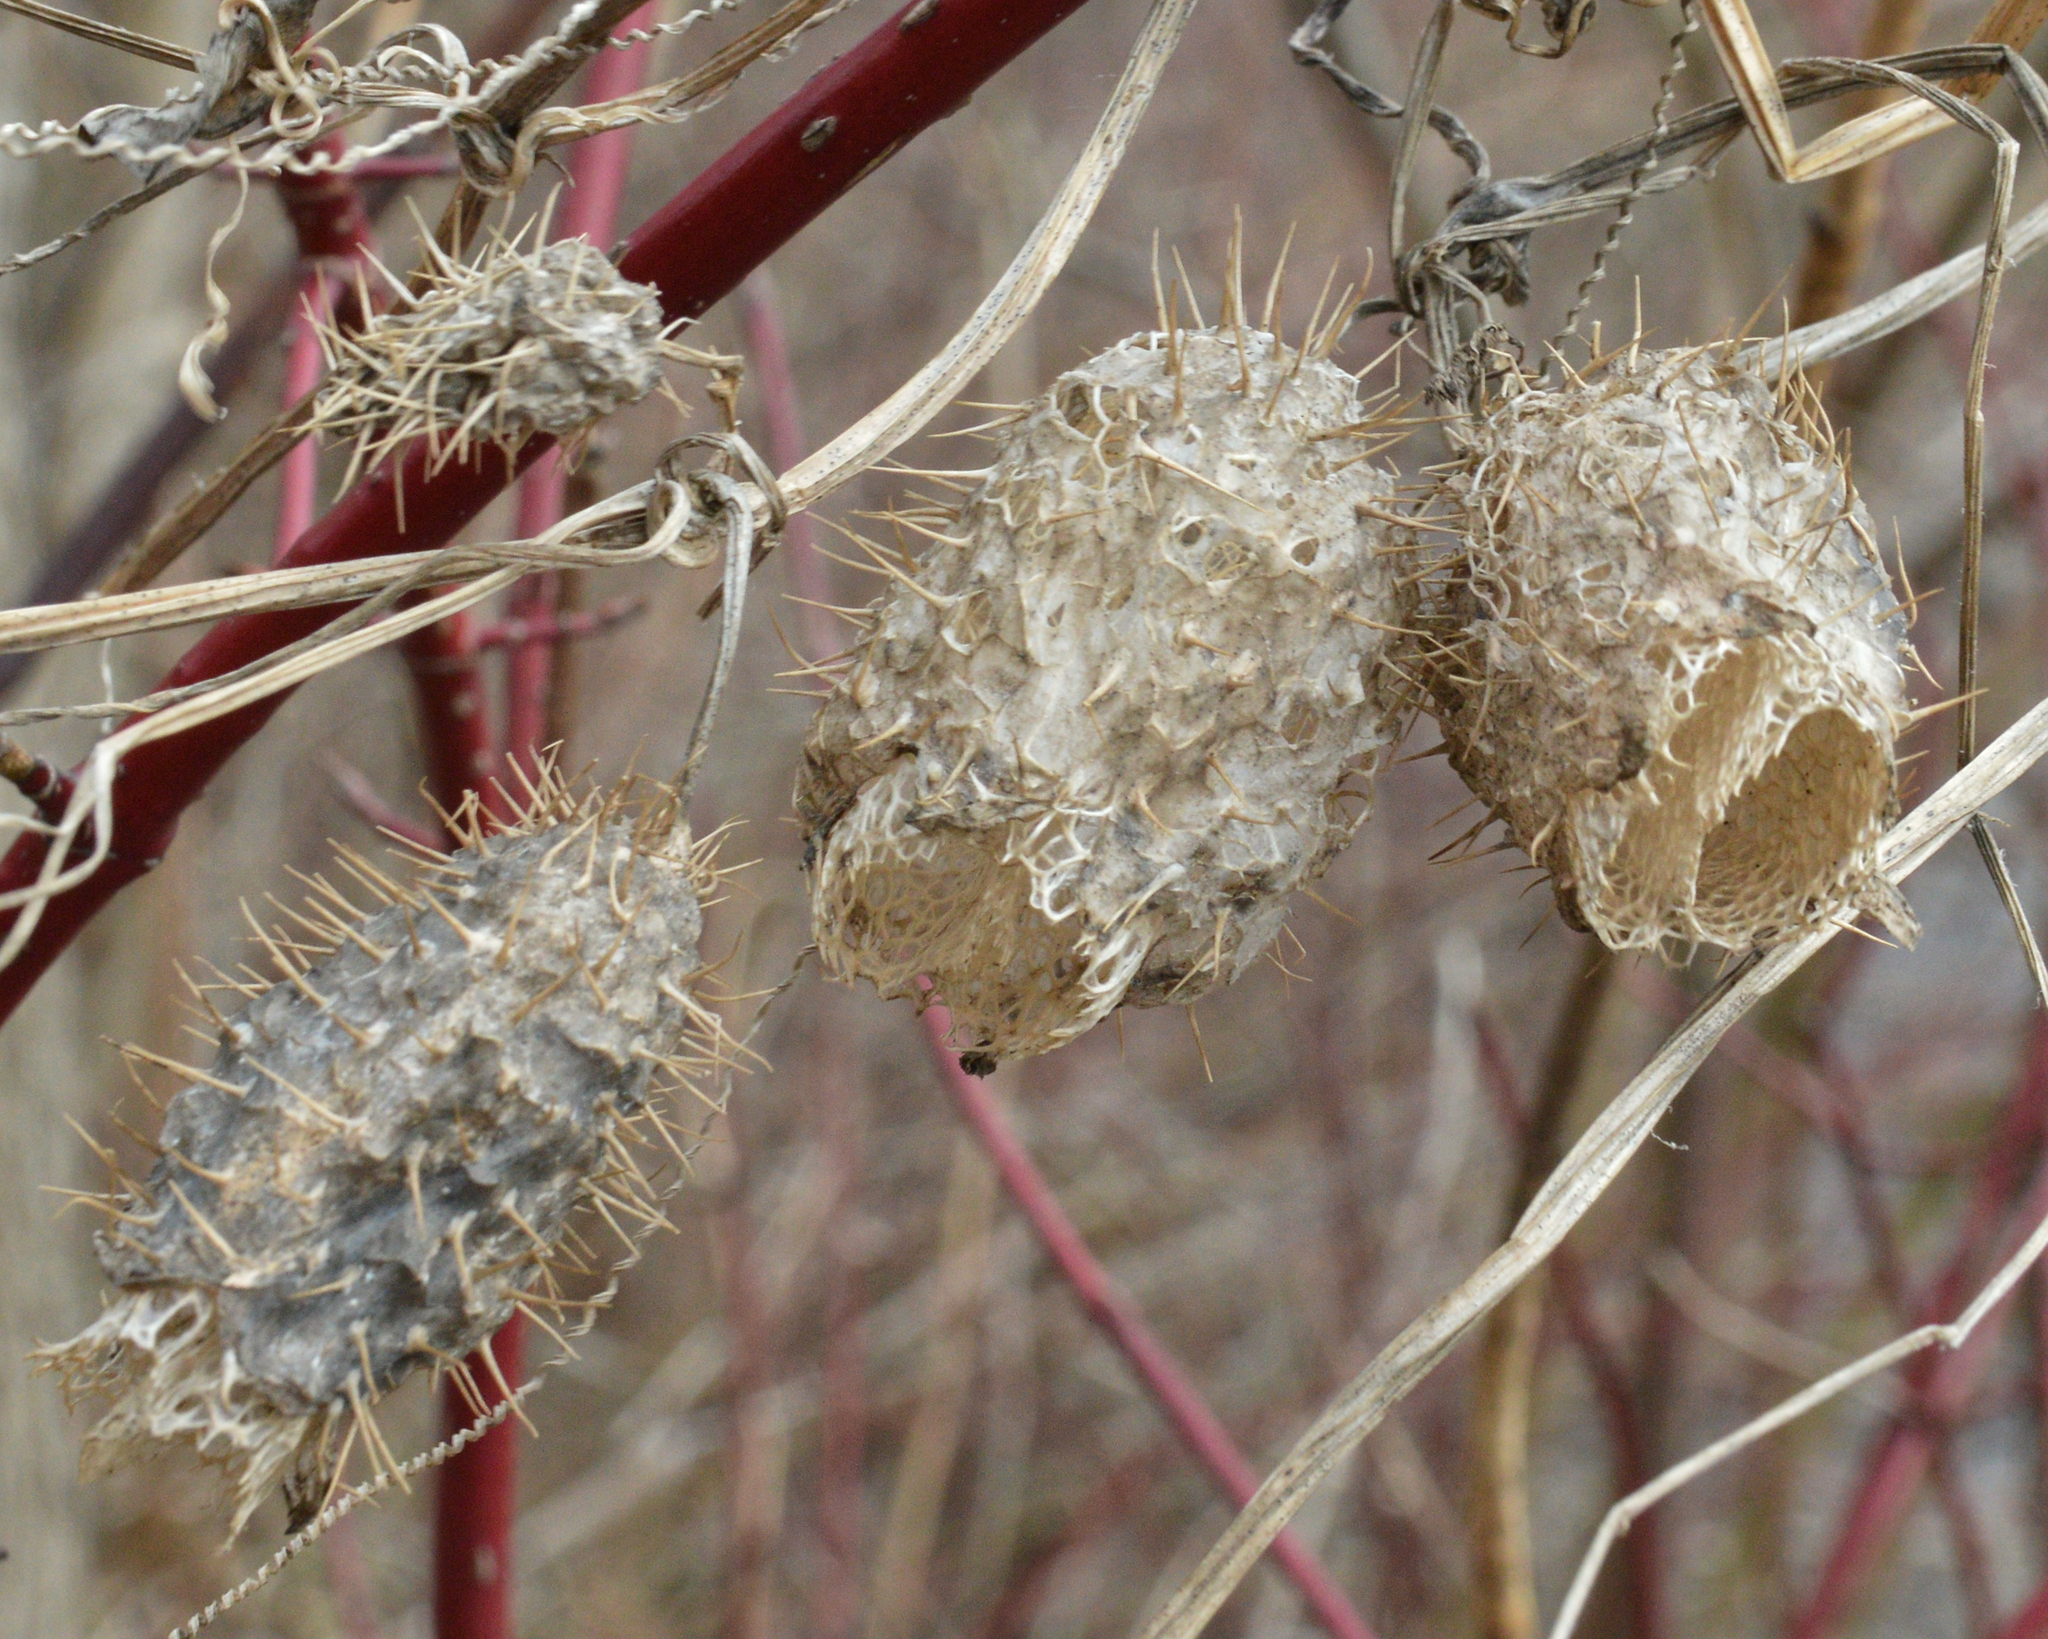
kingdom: Plantae
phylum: Tracheophyta
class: Magnoliopsida
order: Cucurbitales
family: Cucurbitaceae
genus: Echinocystis
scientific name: Echinocystis lobata
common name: Wild cucumber
